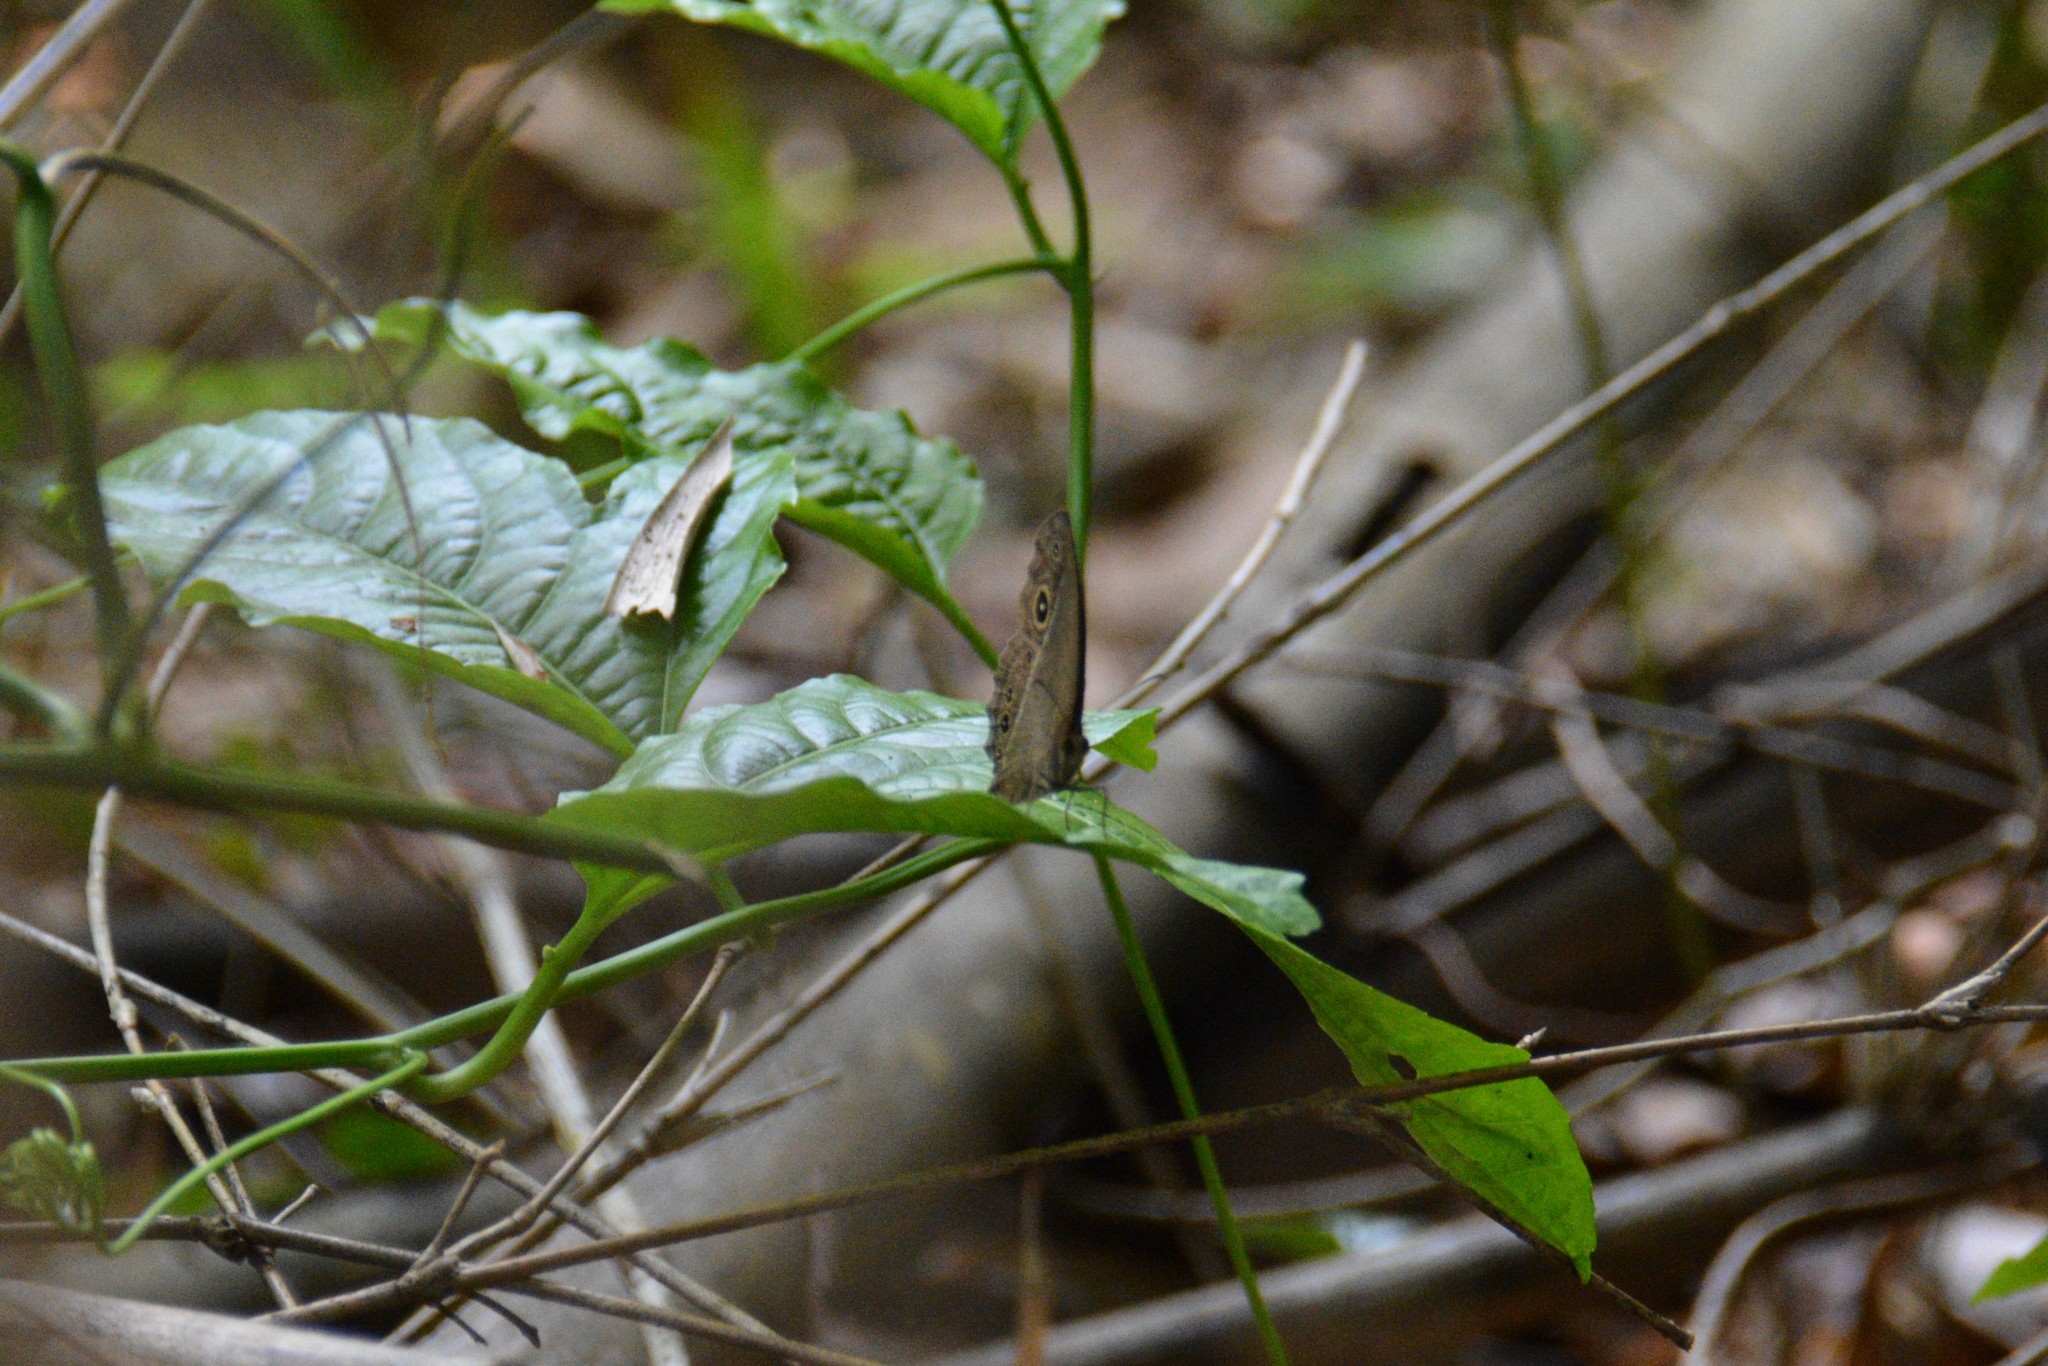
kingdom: Animalia
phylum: Arthropoda
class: Insecta
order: Lepidoptera
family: Nymphalidae
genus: Mycalesis
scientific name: Mycalesis horsfieldii
